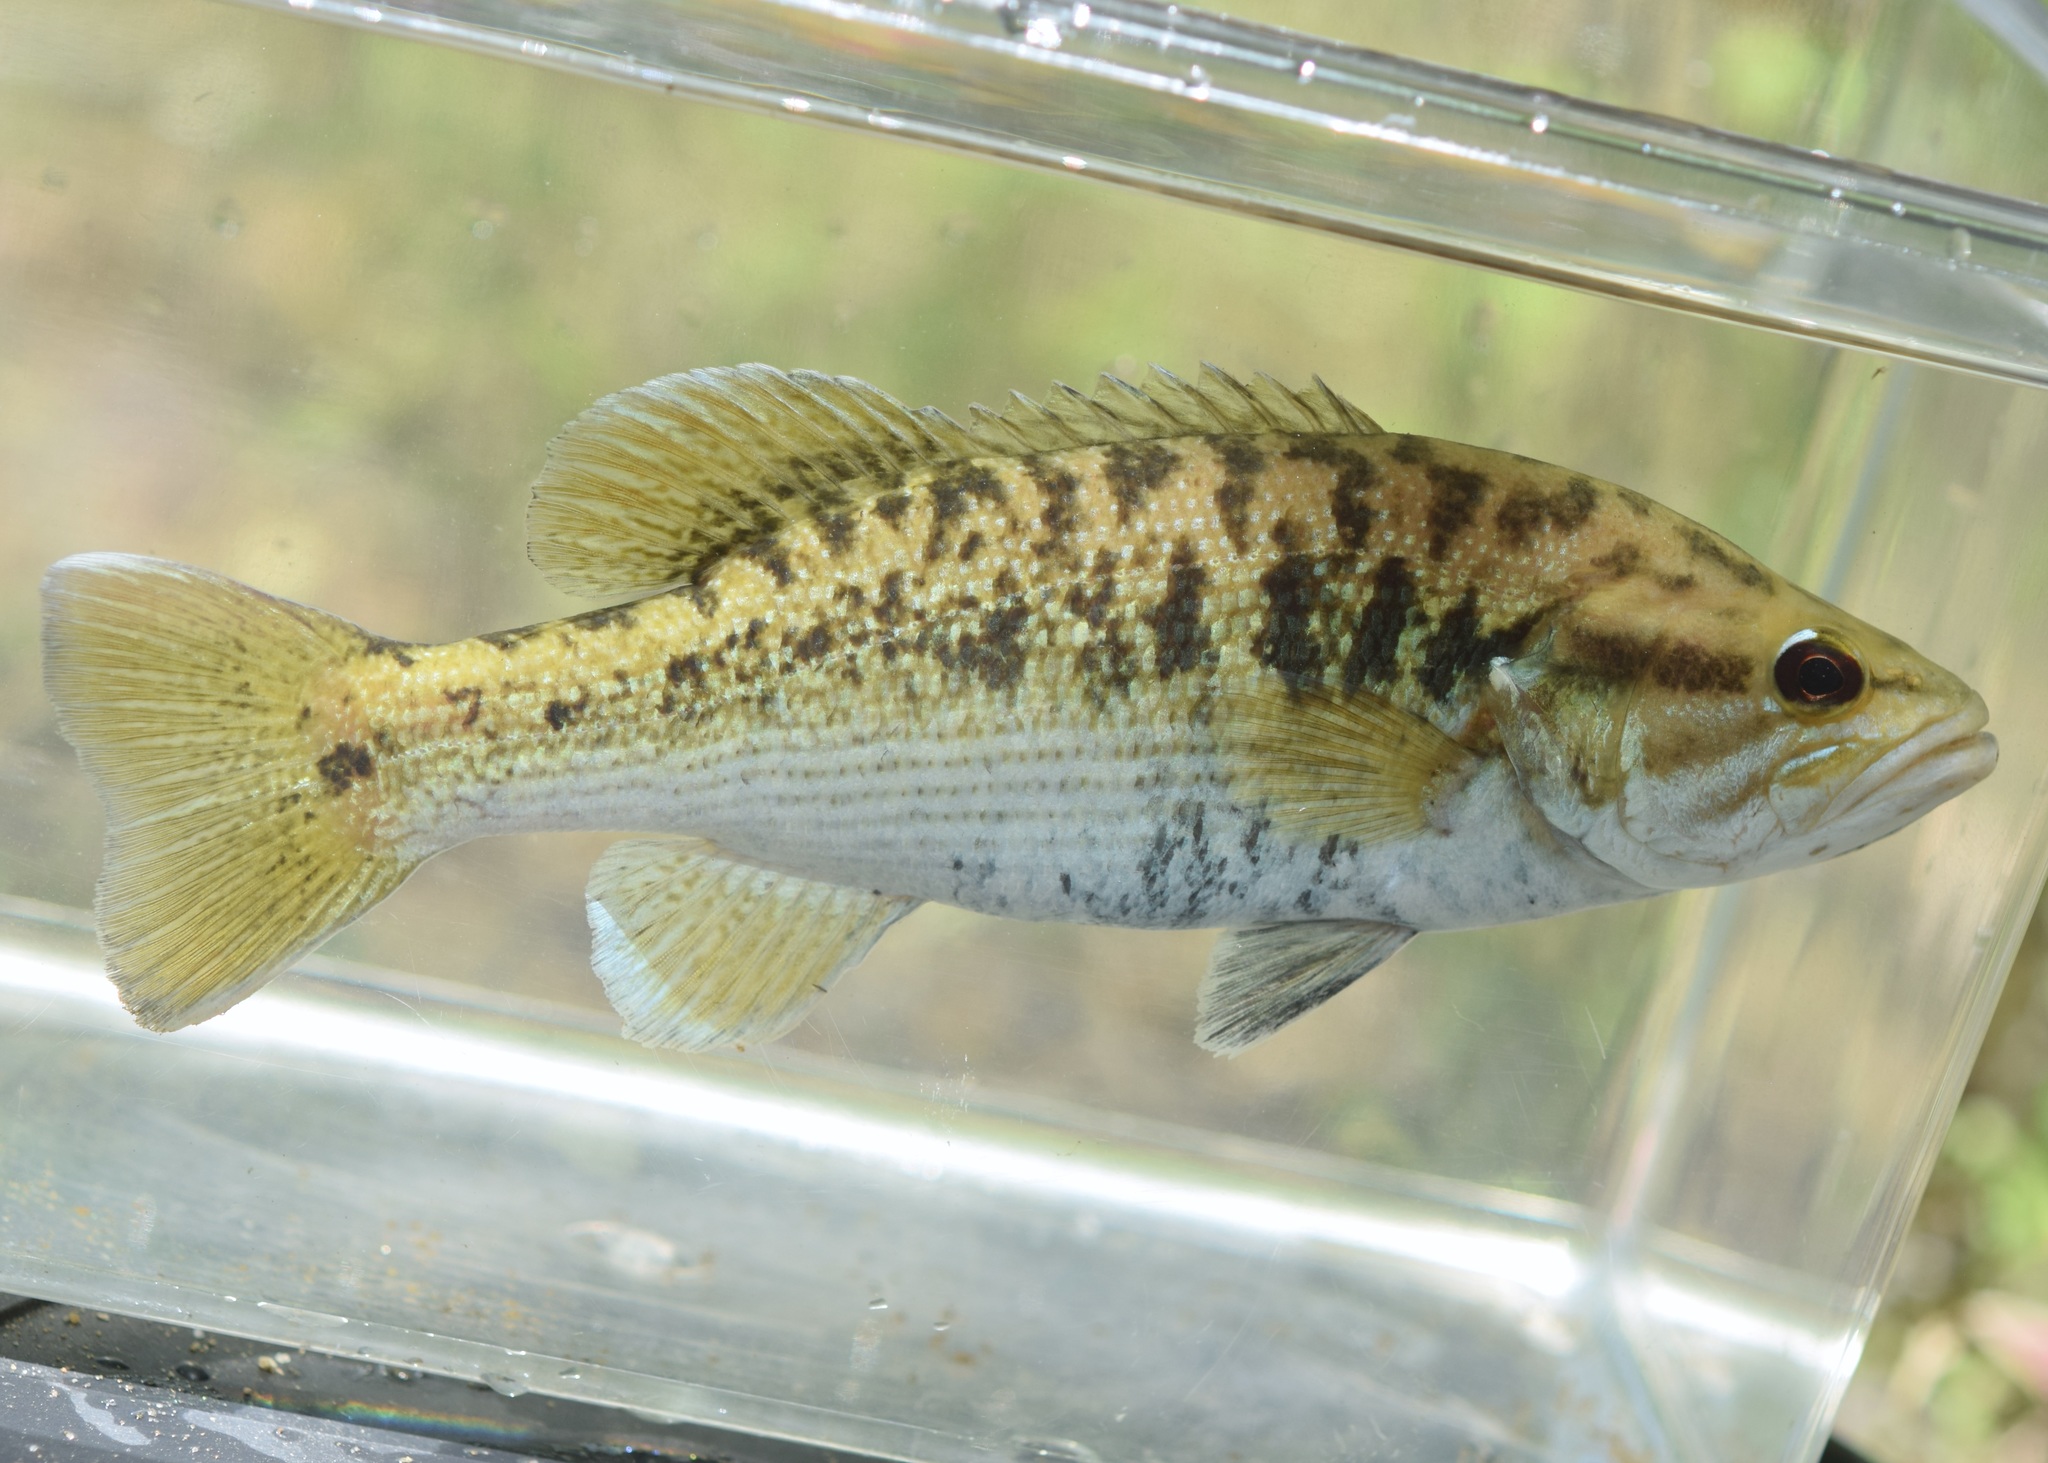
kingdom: Animalia
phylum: Chordata
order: Perciformes
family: Centrarchidae
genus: Micropterus
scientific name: Micropterus coosae
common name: Redeye bass
